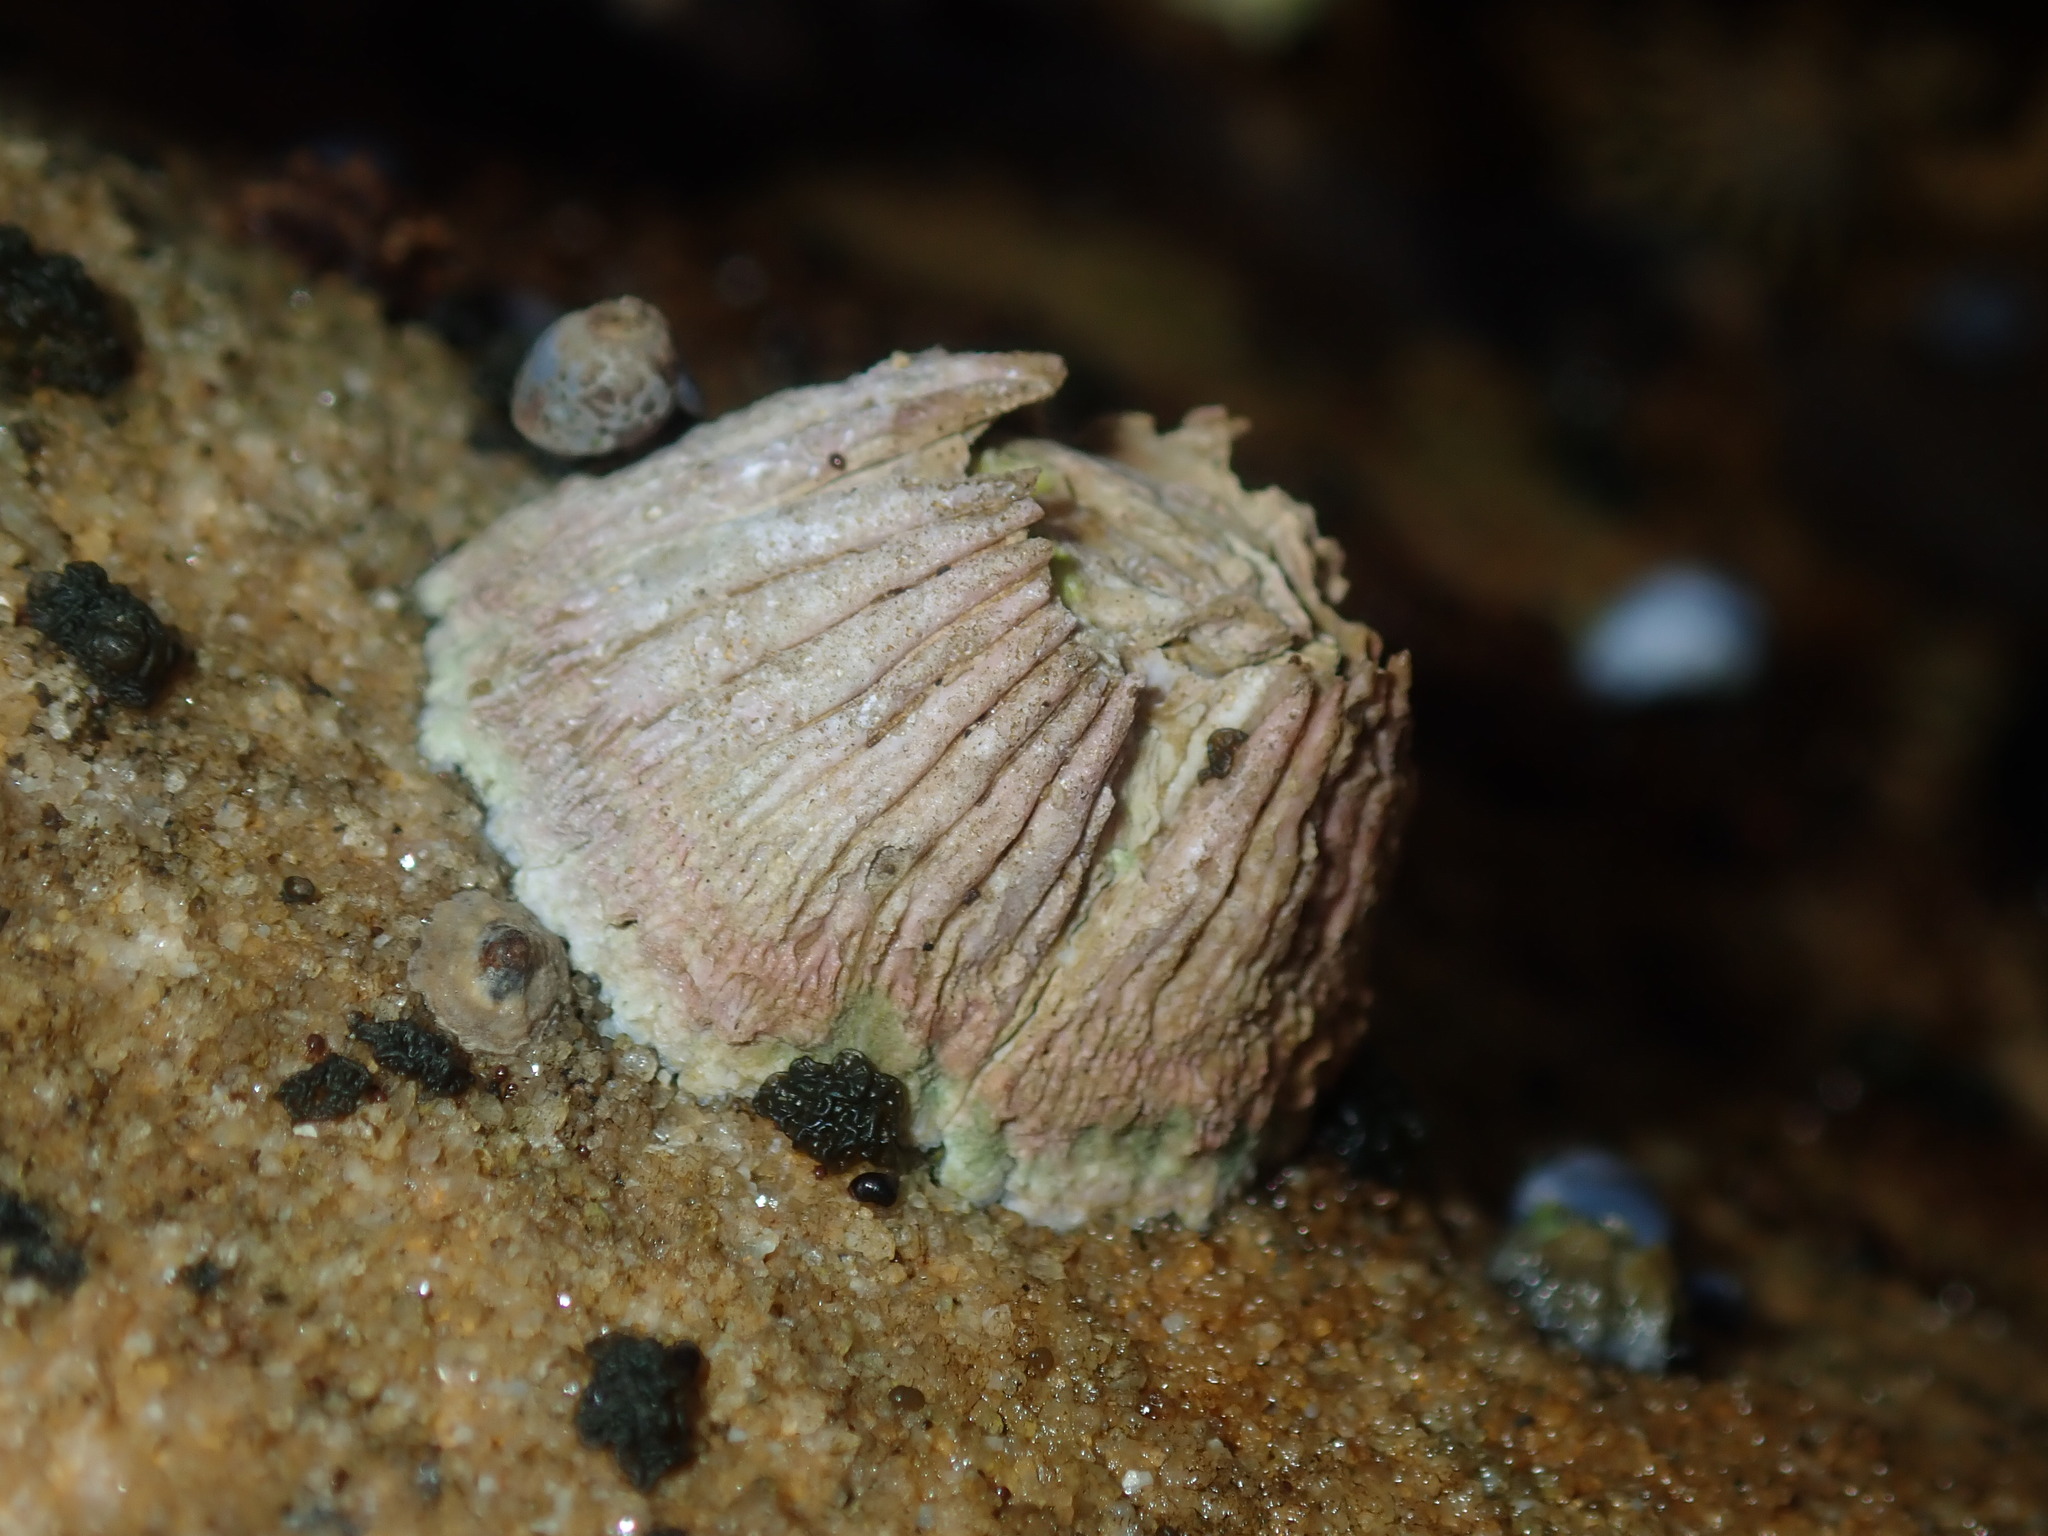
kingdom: Animalia
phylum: Arthropoda
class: Maxillopoda
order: Sessilia
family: Tetraclitidae
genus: Tesseropora
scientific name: Tesseropora rosea
